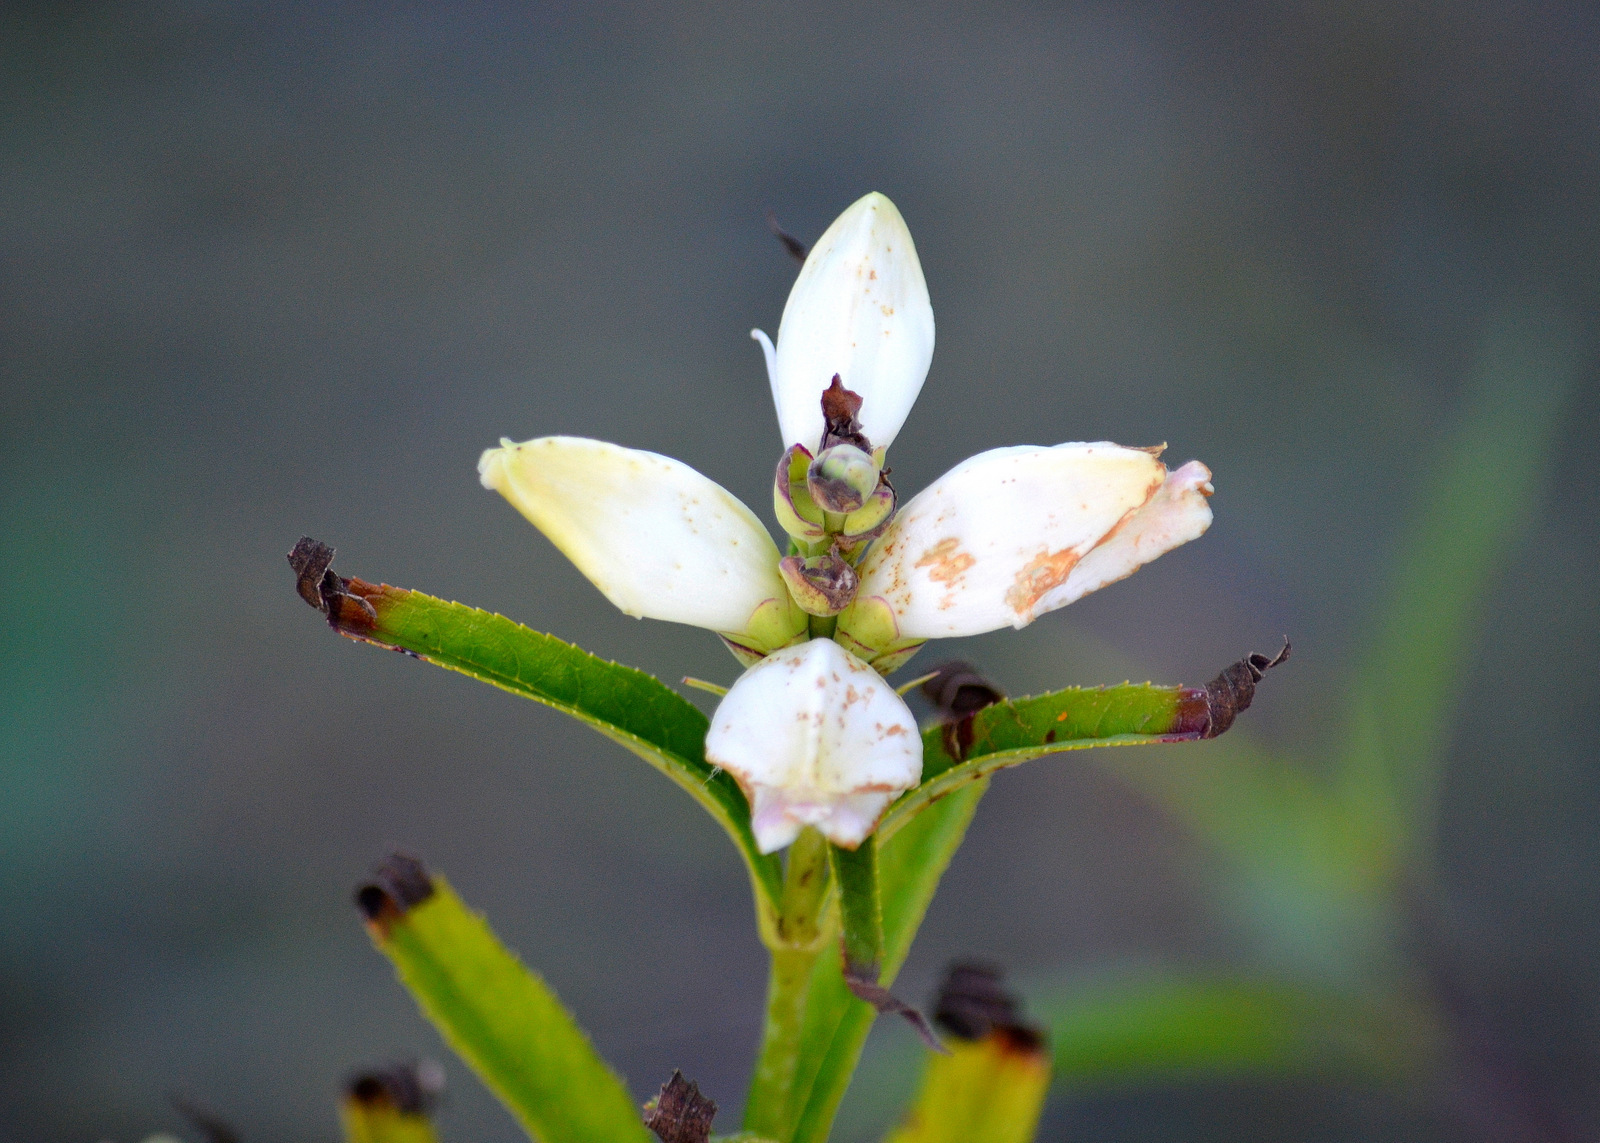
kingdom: Plantae
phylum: Tracheophyta
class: Magnoliopsida
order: Lamiales
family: Plantaginaceae
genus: Chelone
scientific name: Chelone glabra
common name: Snakehead
